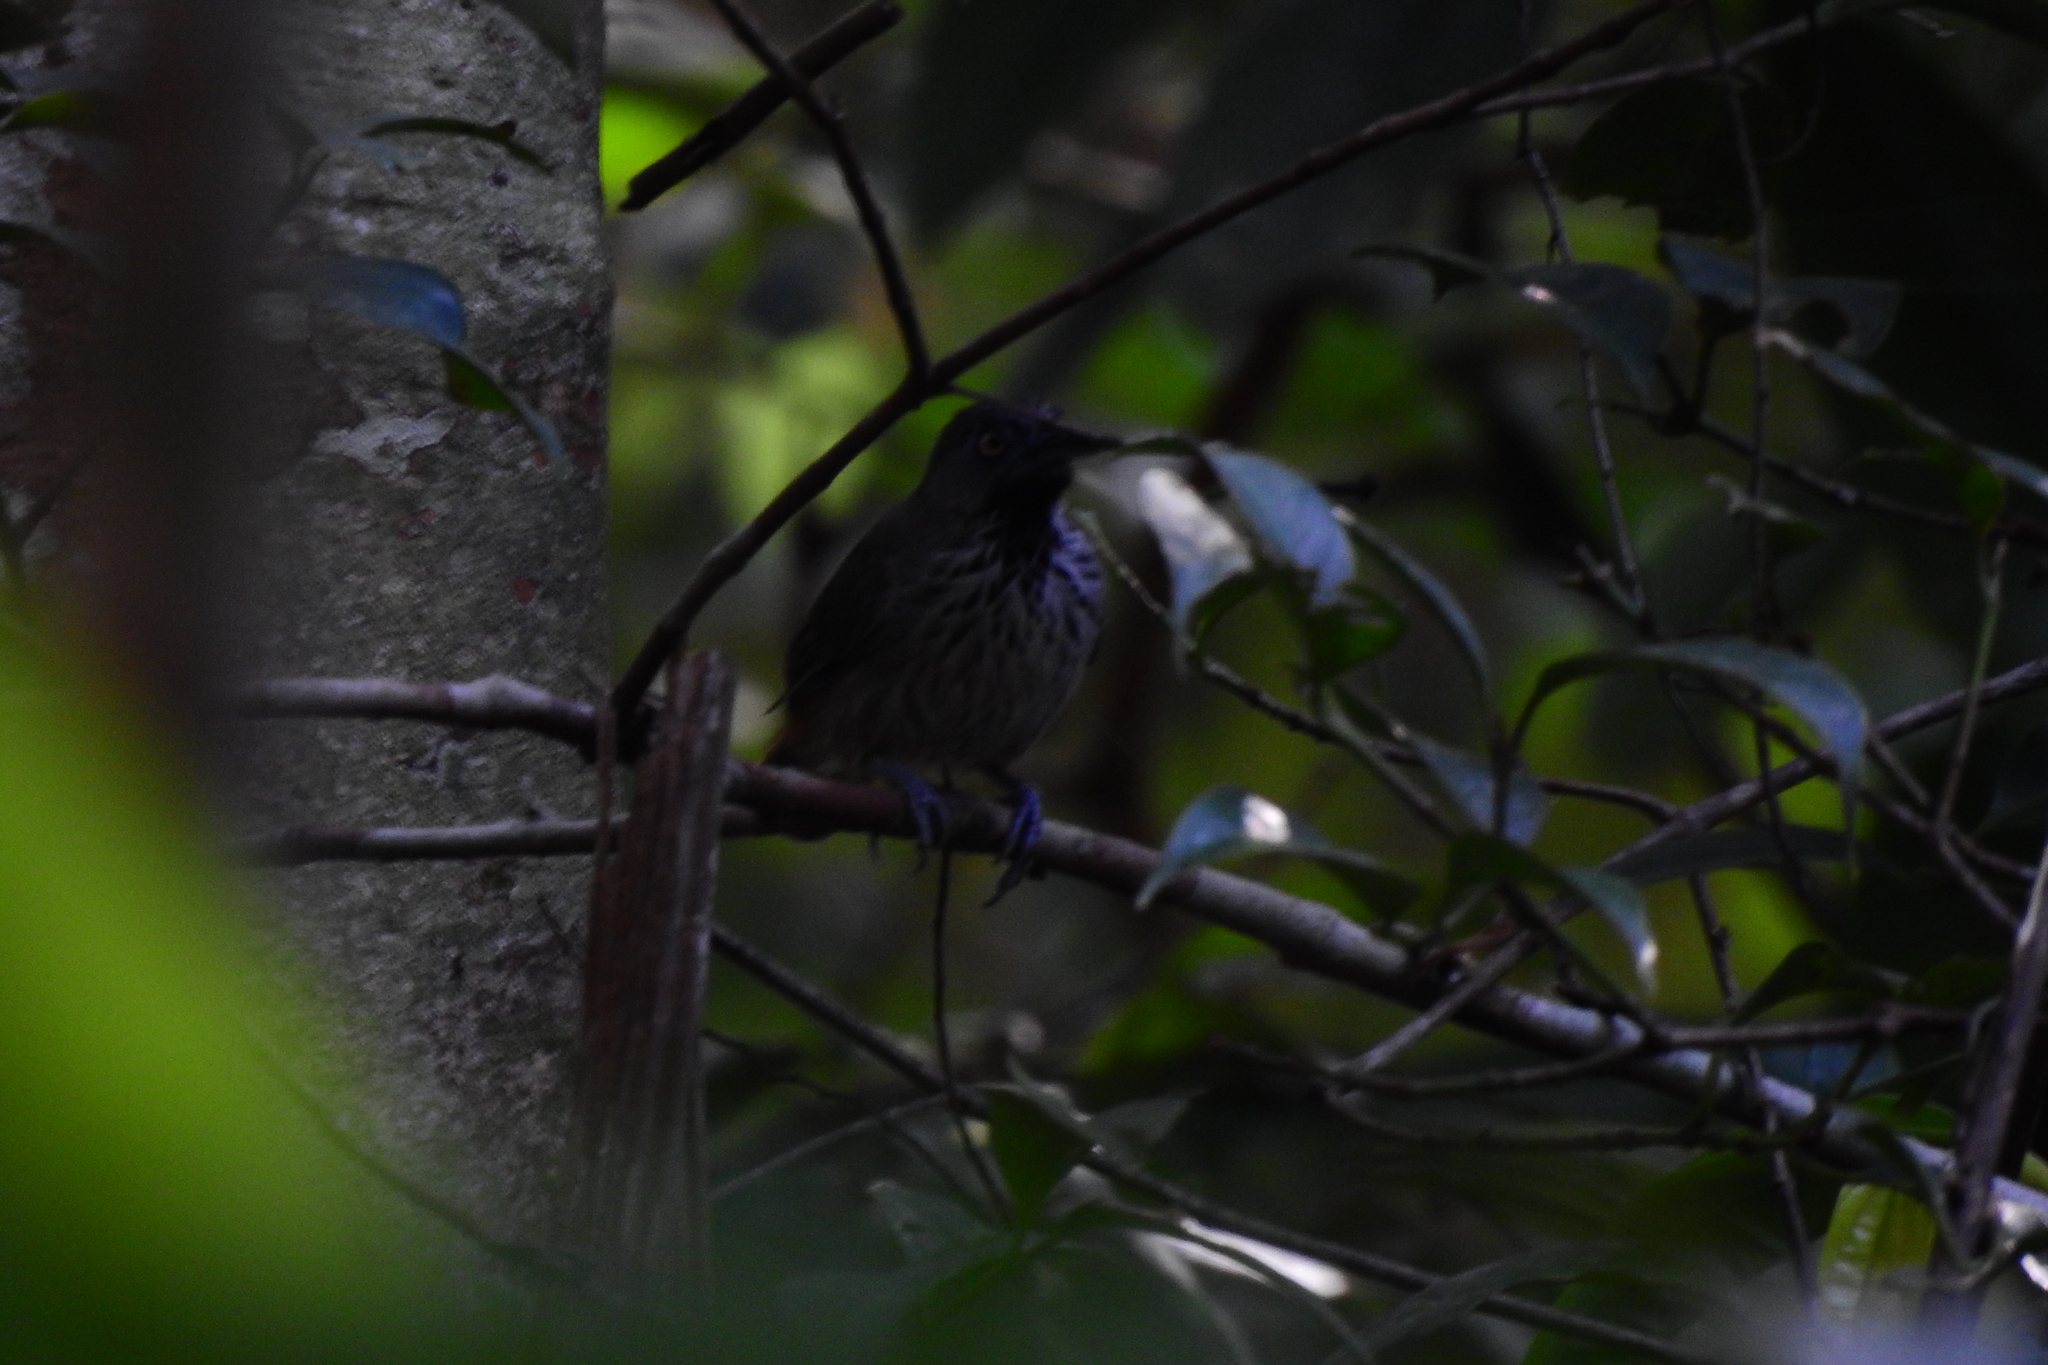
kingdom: Animalia
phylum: Chordata
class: Aves
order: Passeriformes
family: Timaliidae
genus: Stachyris
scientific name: Stachyris maculata
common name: Chestnut-rumped babbler
